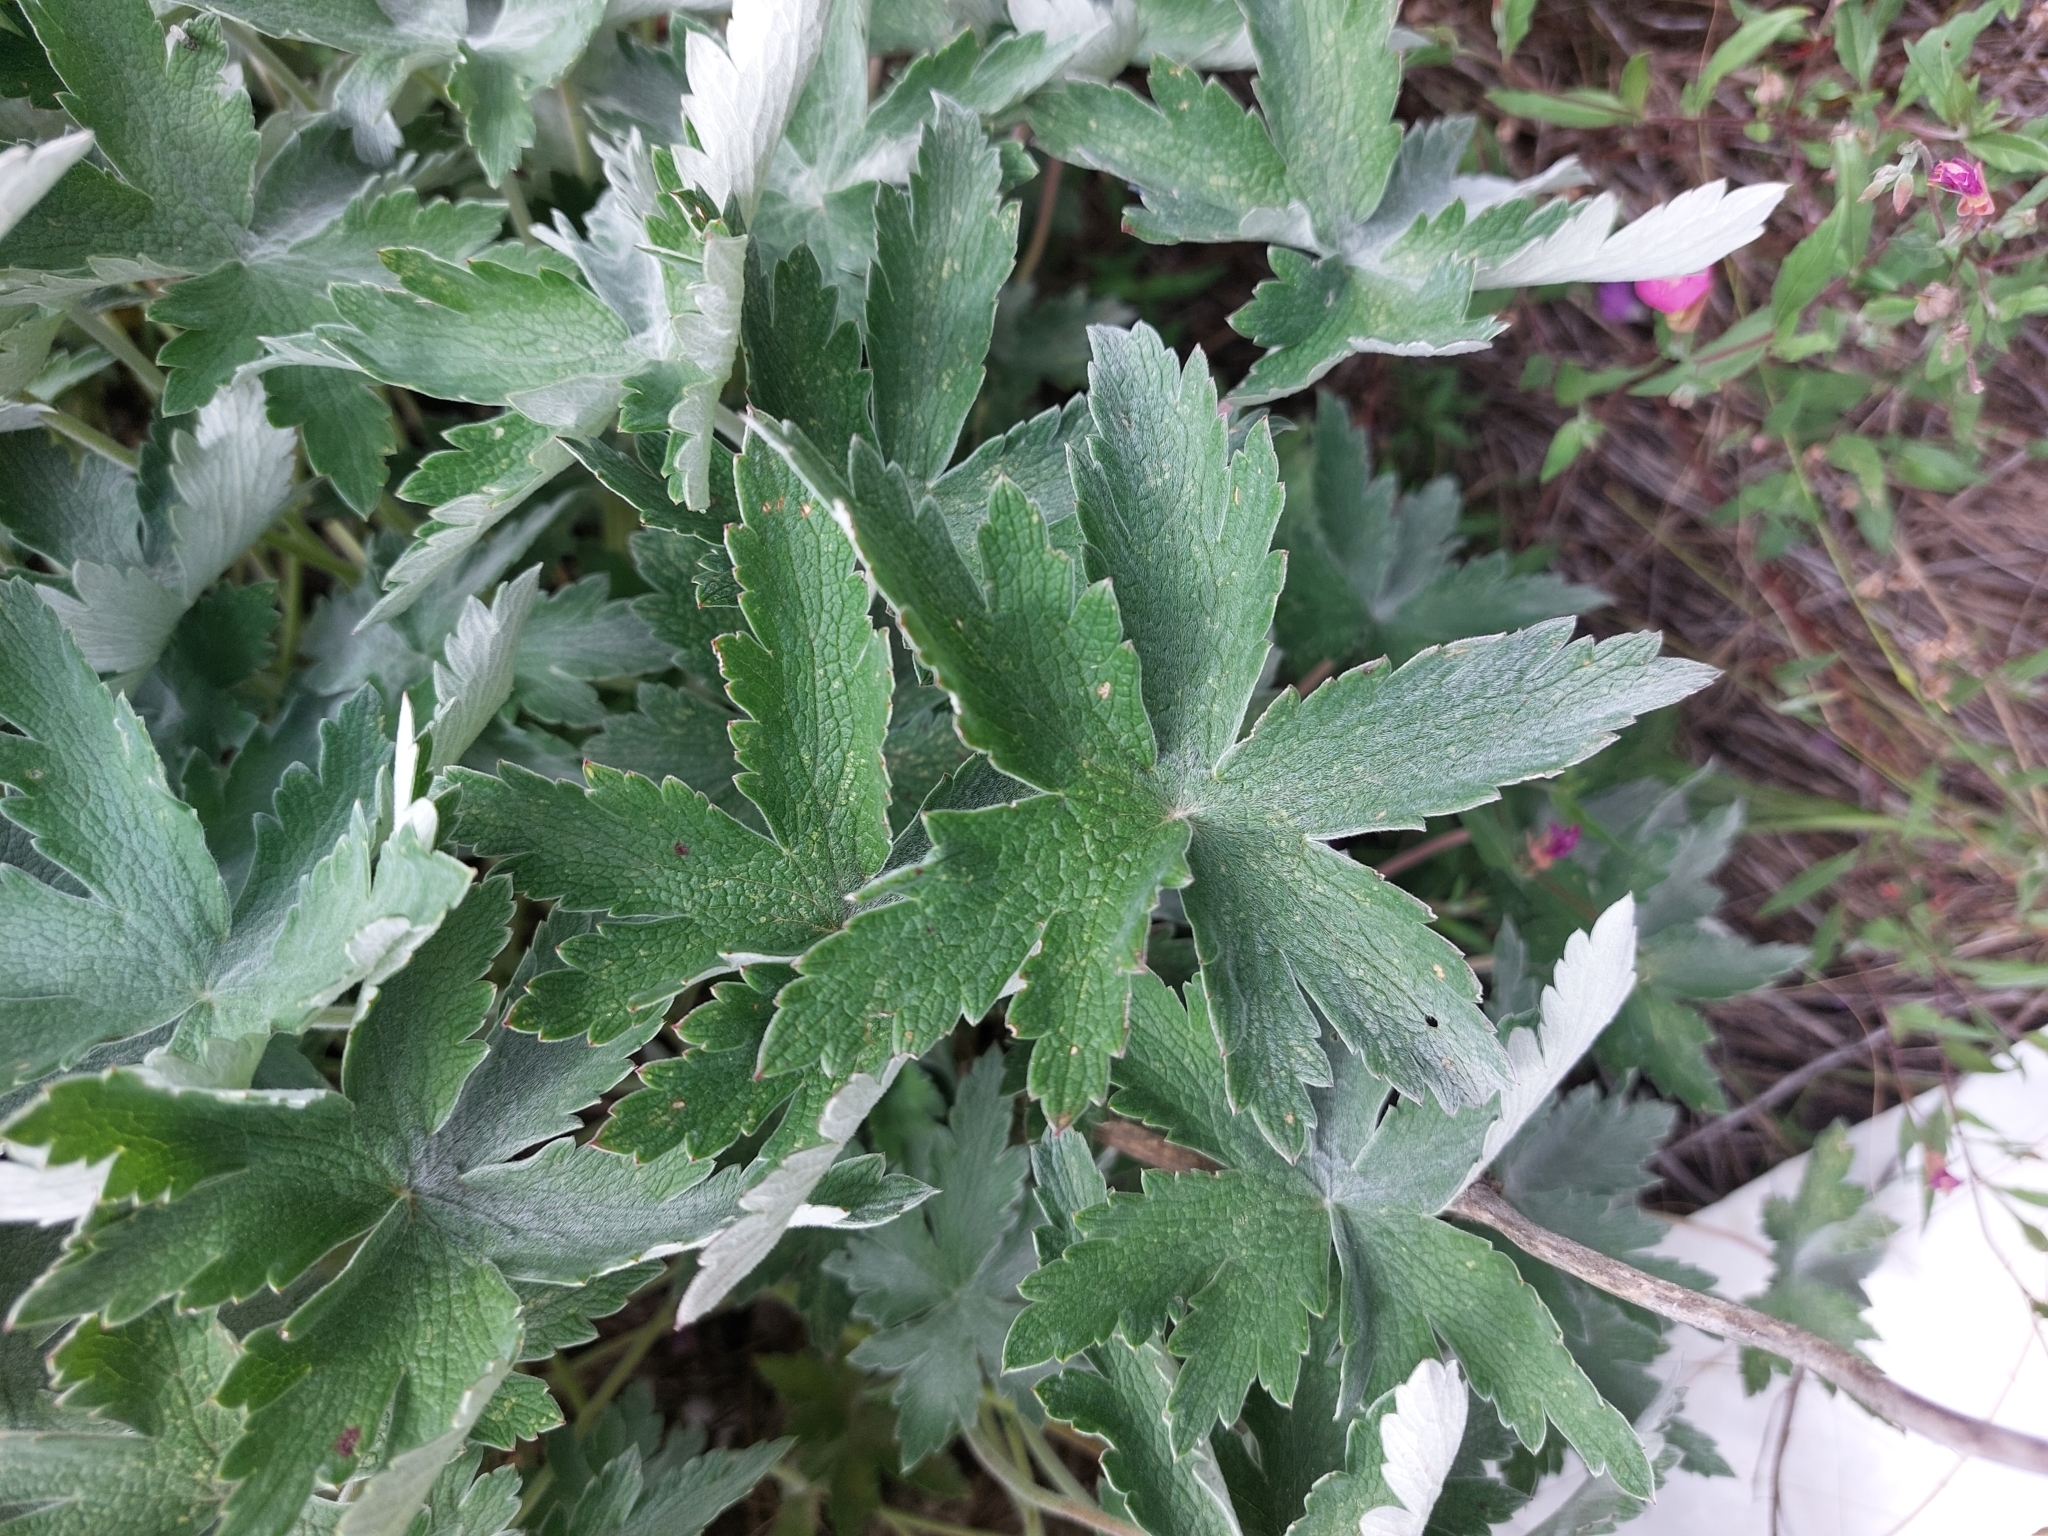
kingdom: Plantae
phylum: Tracheophyta
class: Magnoliopsida
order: Geraniales
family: Geraniaceae
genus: Geranium
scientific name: Geranium pulchrum
